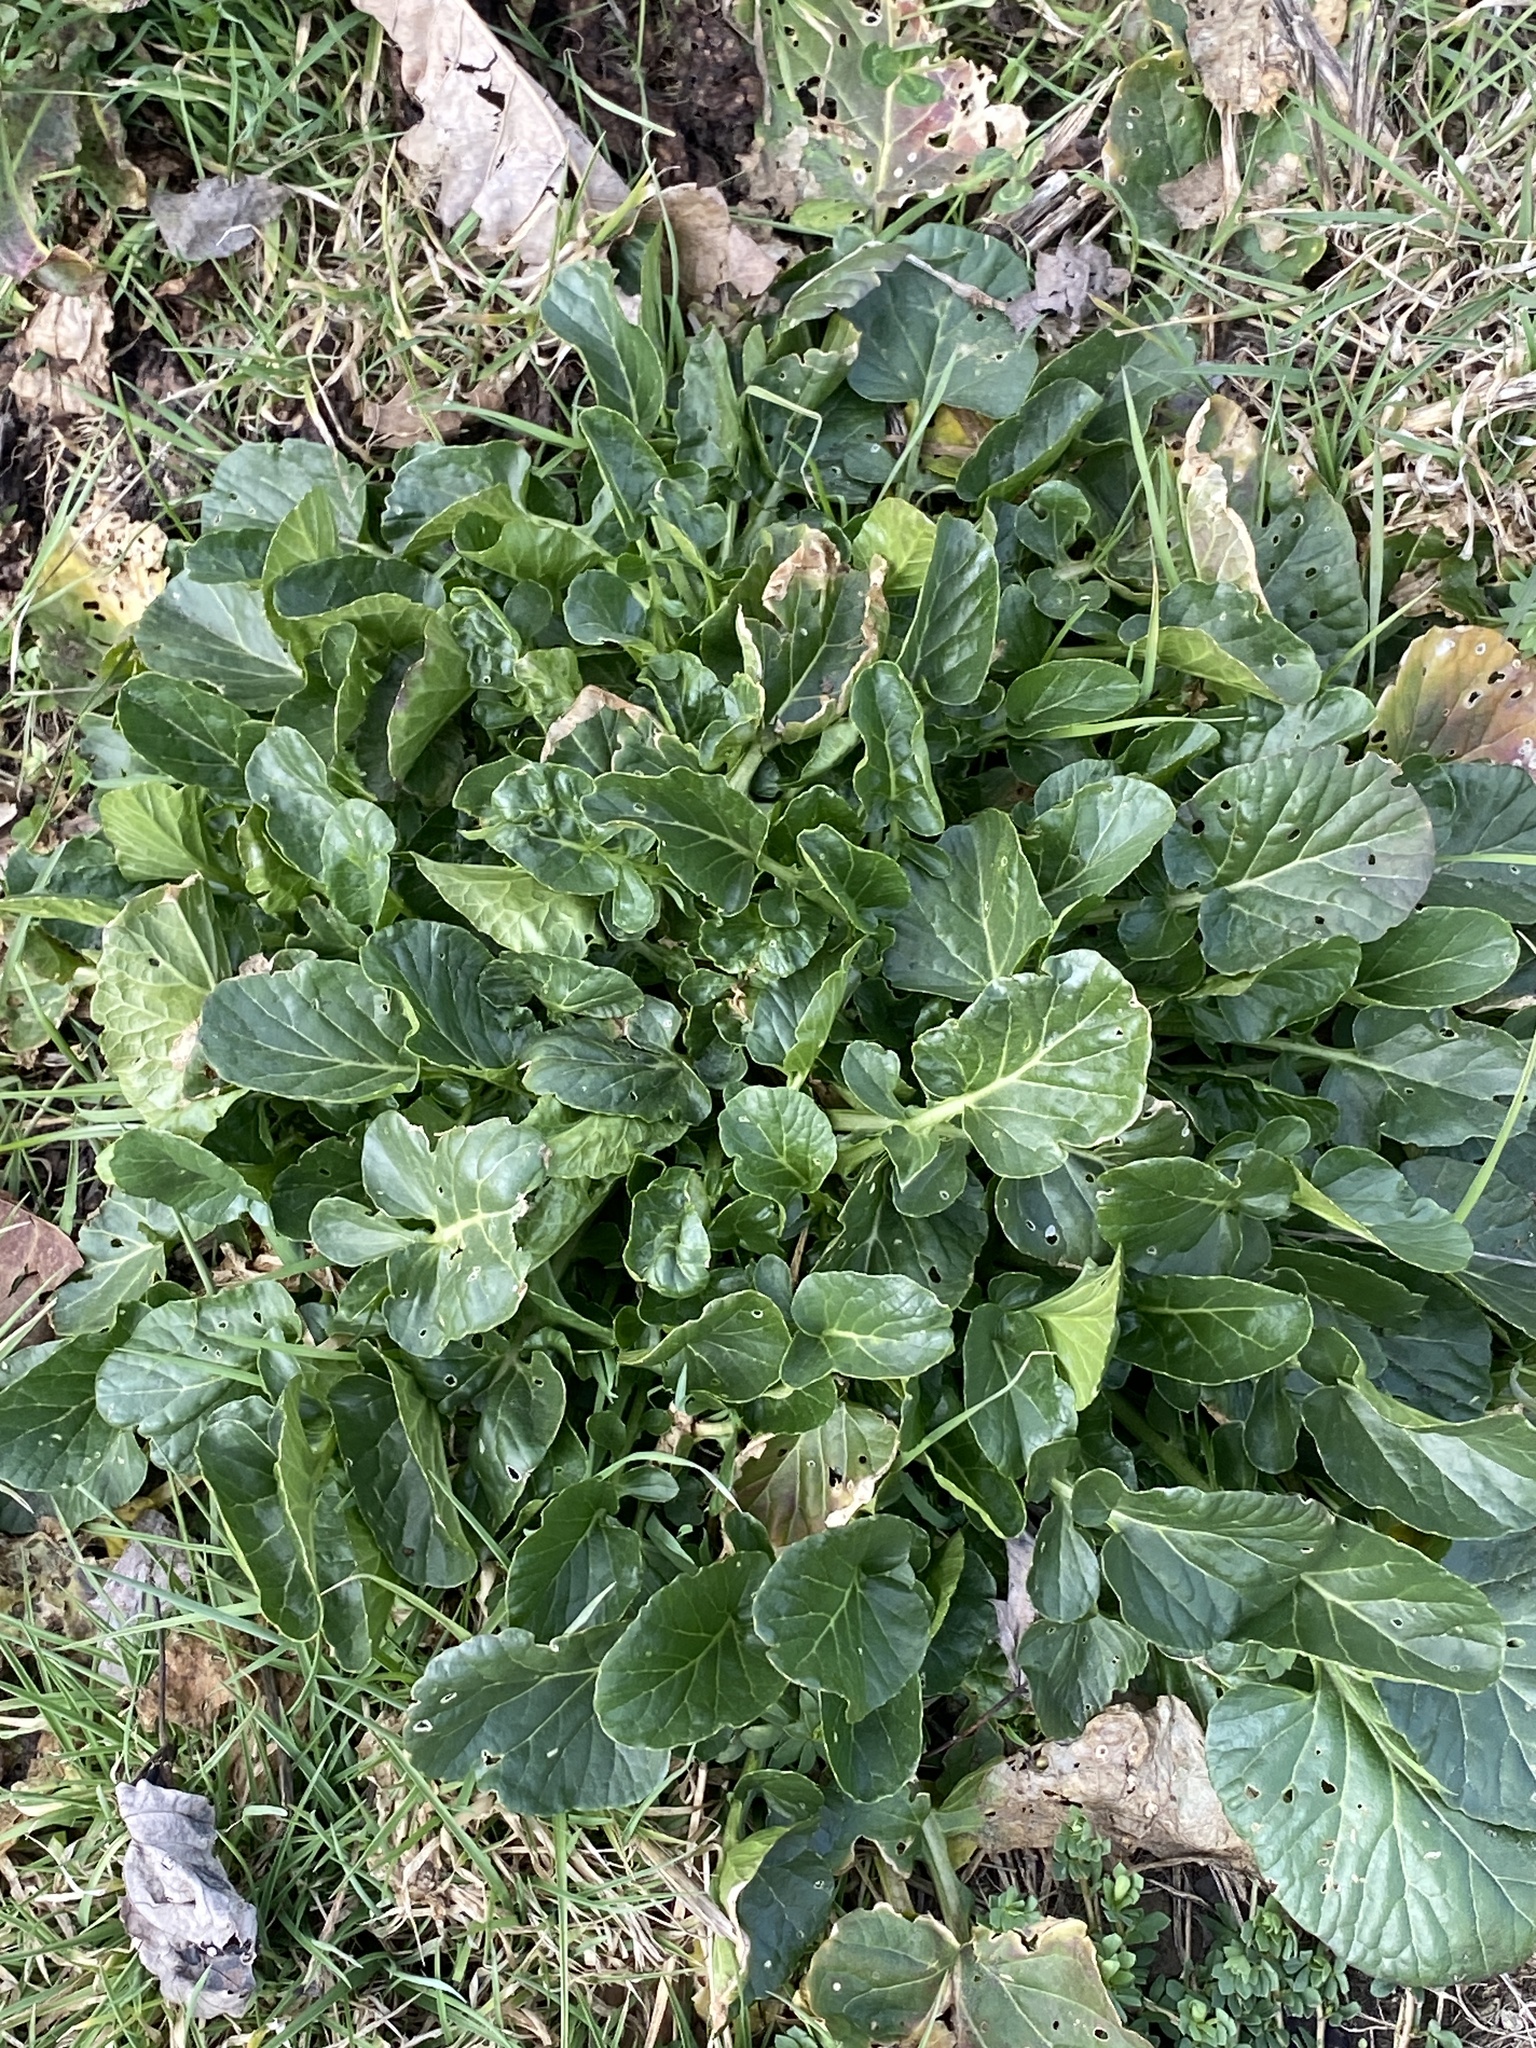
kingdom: Plantae
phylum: Tracheophyta
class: Magnoliopsida
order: Brassicales
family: Brassicaceae
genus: Barbarea
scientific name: Barbarea vulgaris
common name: Cressy-greens
